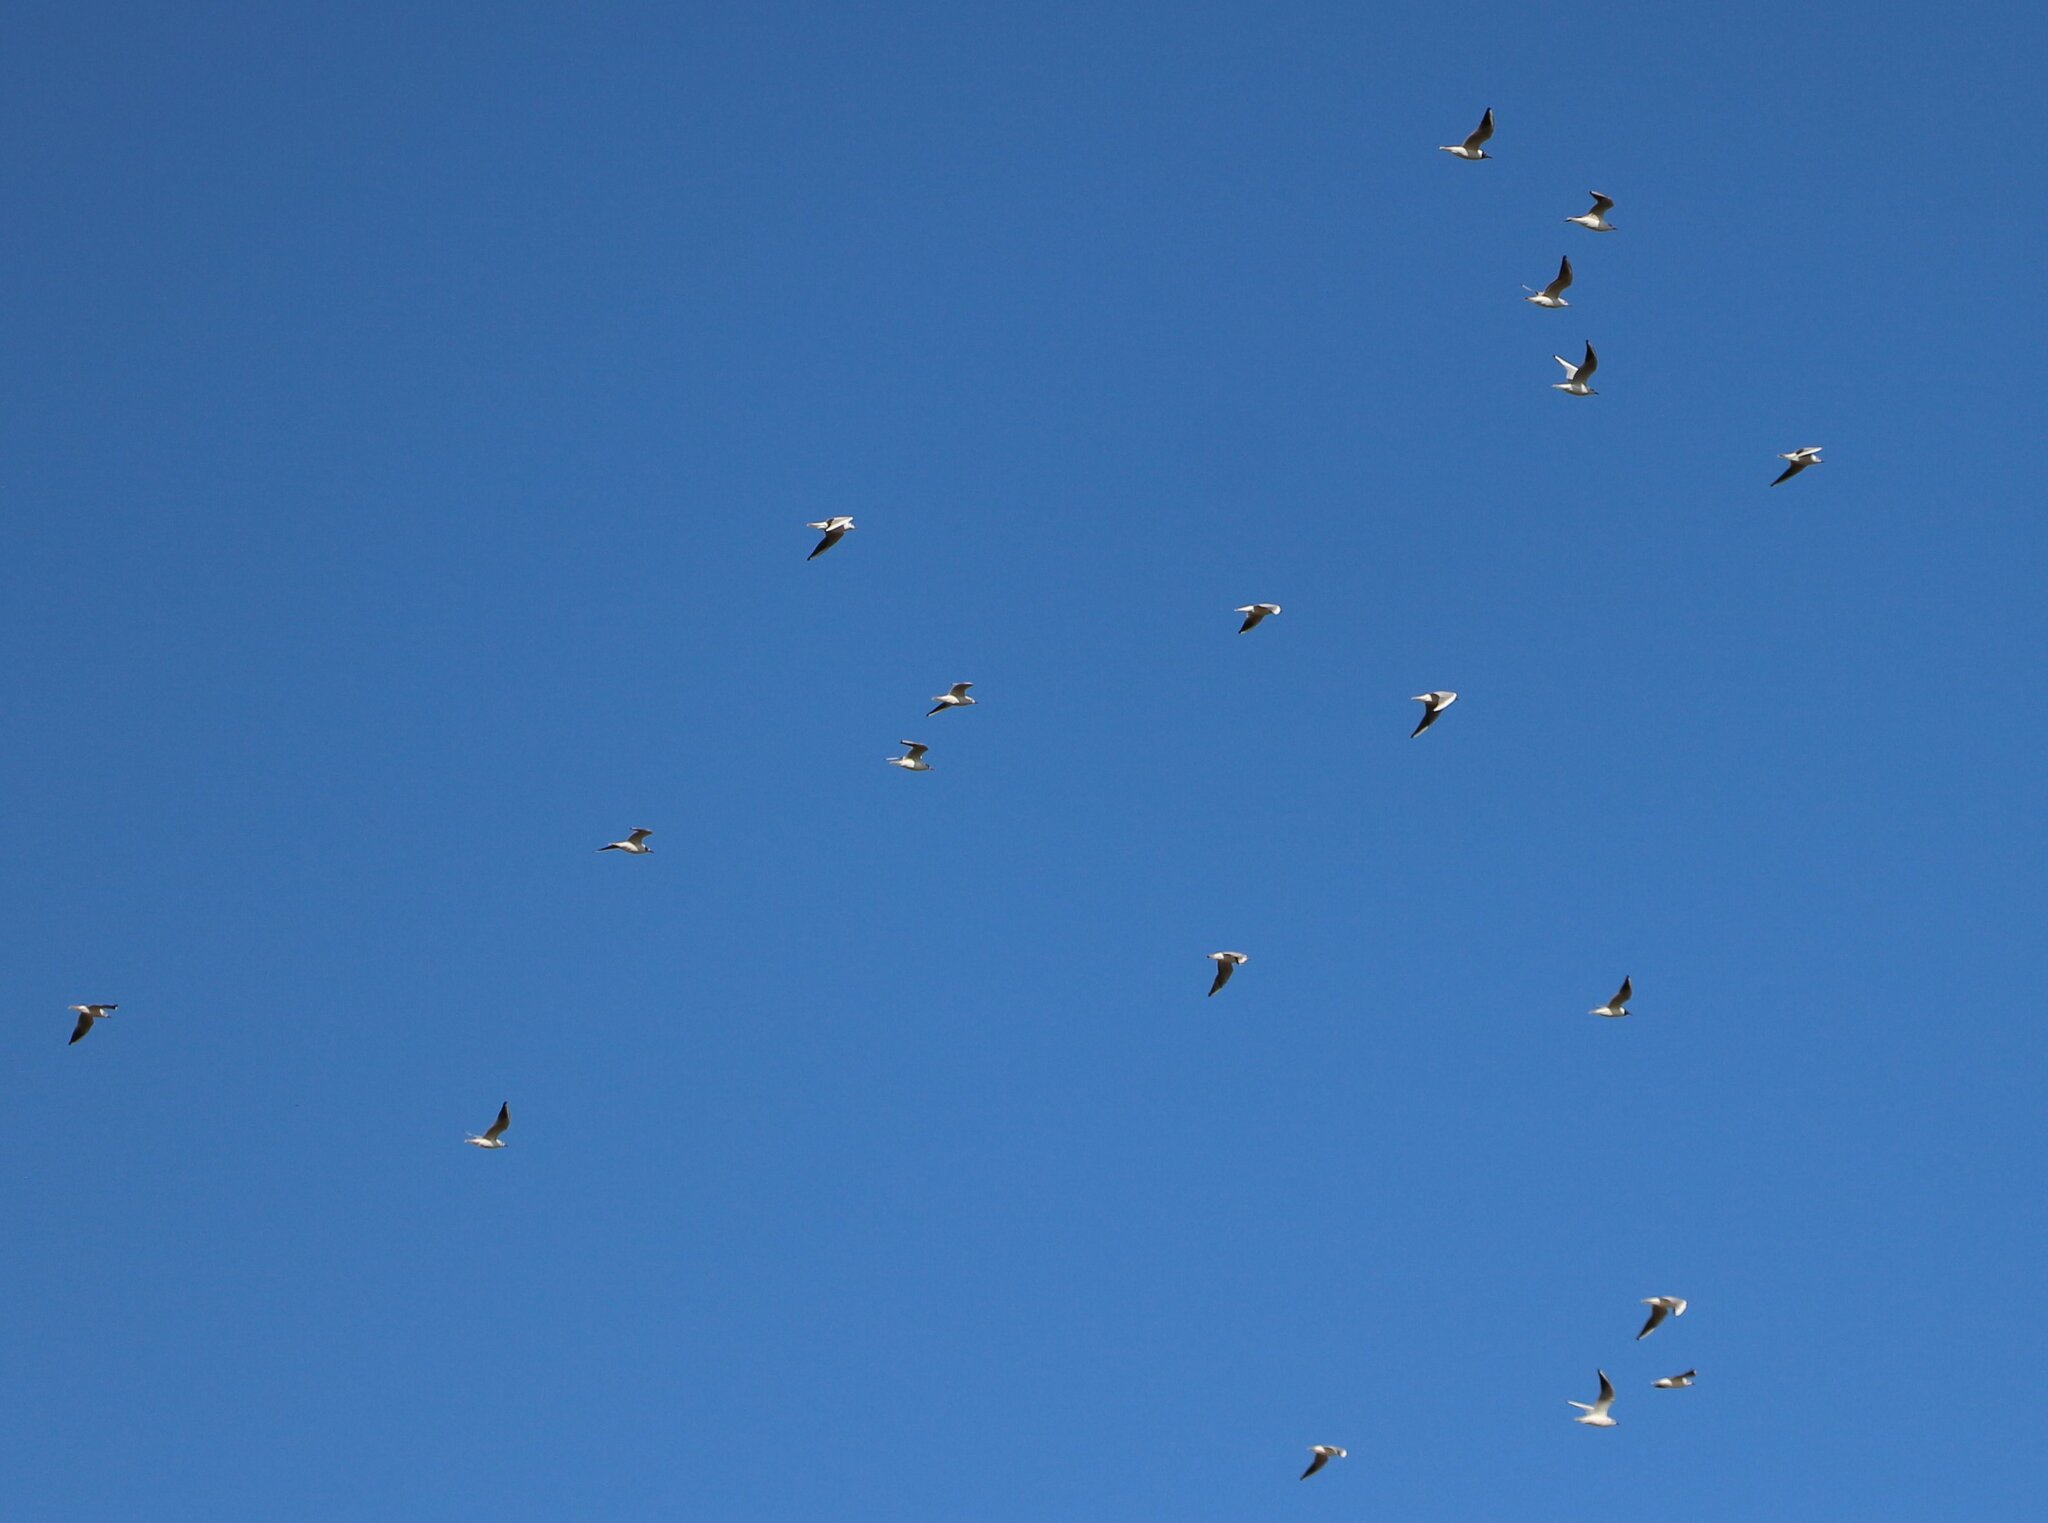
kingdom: Animalia
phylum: Chordata
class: Aves
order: Charadriiformes
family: Laridae
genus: Chroicocephalus
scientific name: Chroicocephalus ridibundus
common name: Black-headed gull
